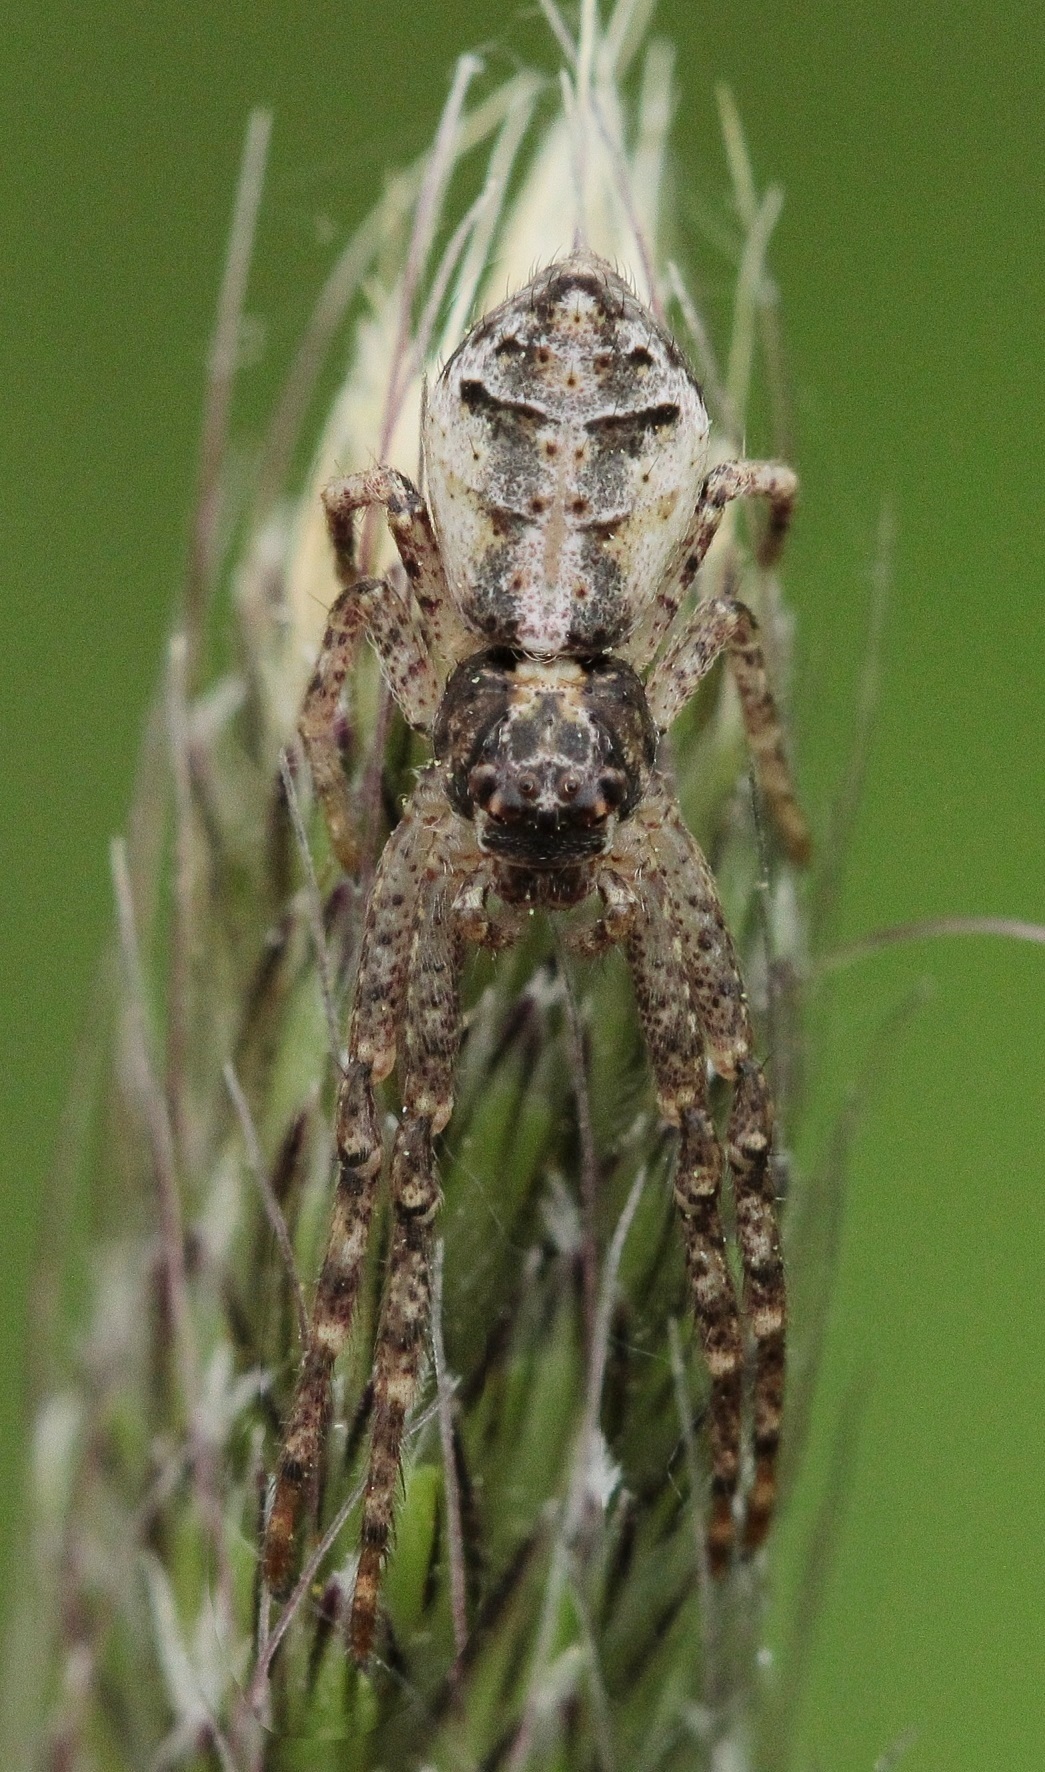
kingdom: Animalia
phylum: Arthropoda
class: Arachnida
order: Araneae
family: Thomisidae
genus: Tmarus
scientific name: Tmarus
